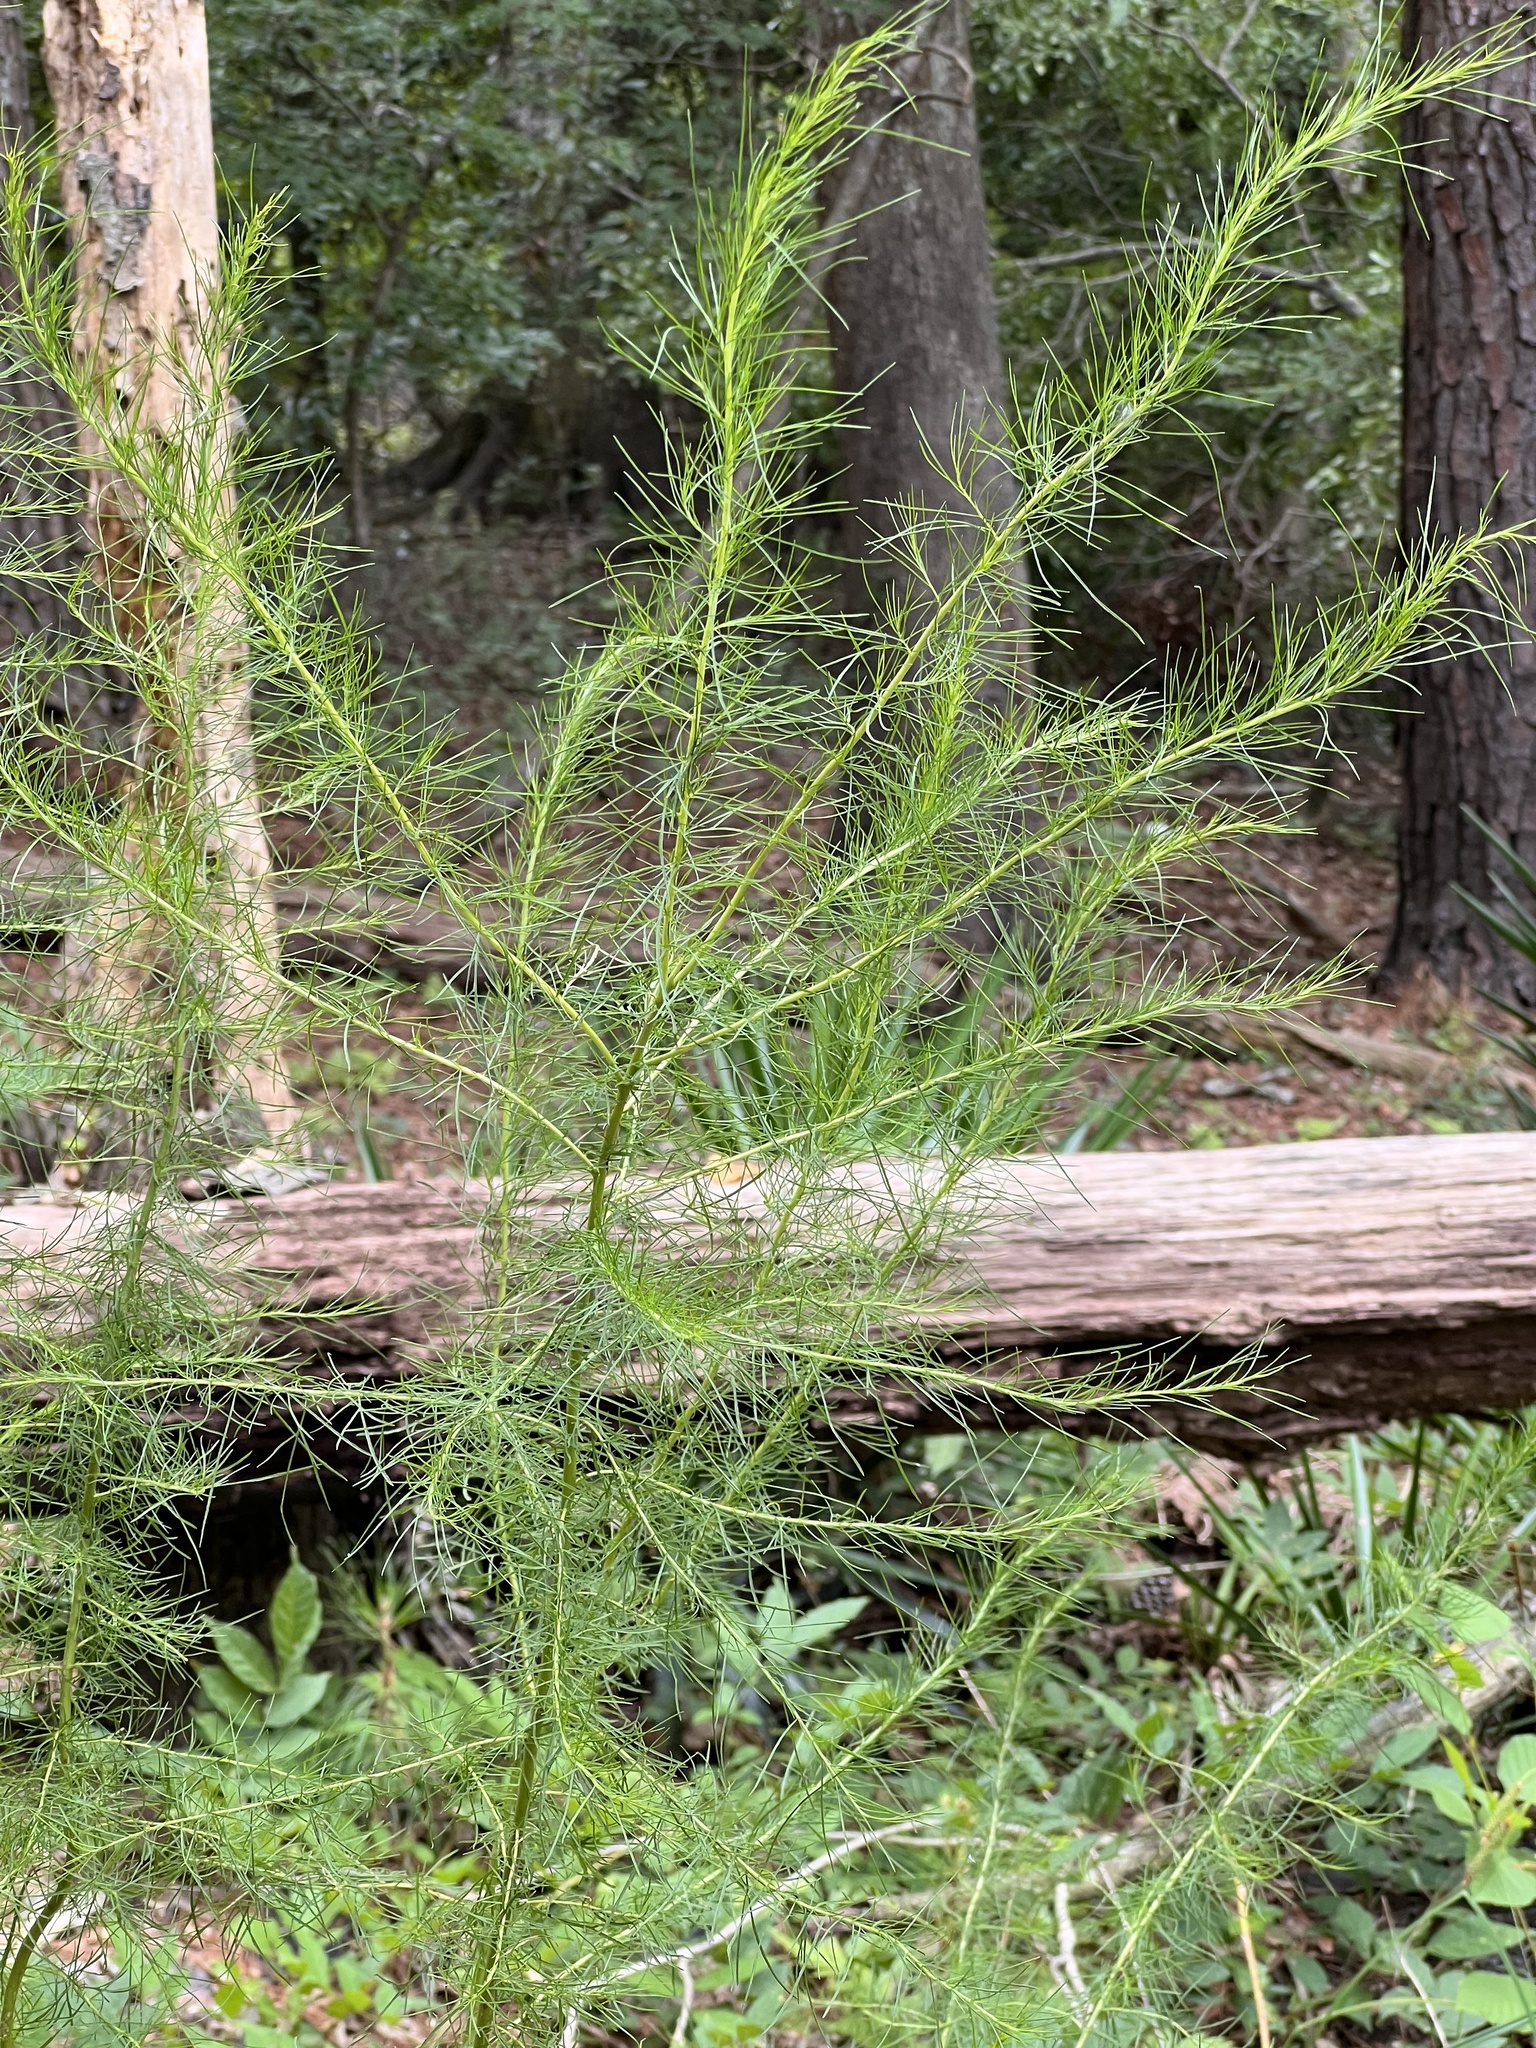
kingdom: Plantae
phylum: Tracheophyta
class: Magnoliopsida
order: Asterales
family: Asteraceae
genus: Eupatorium
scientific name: Eupatorium capillifolium
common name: Dog-fennel
